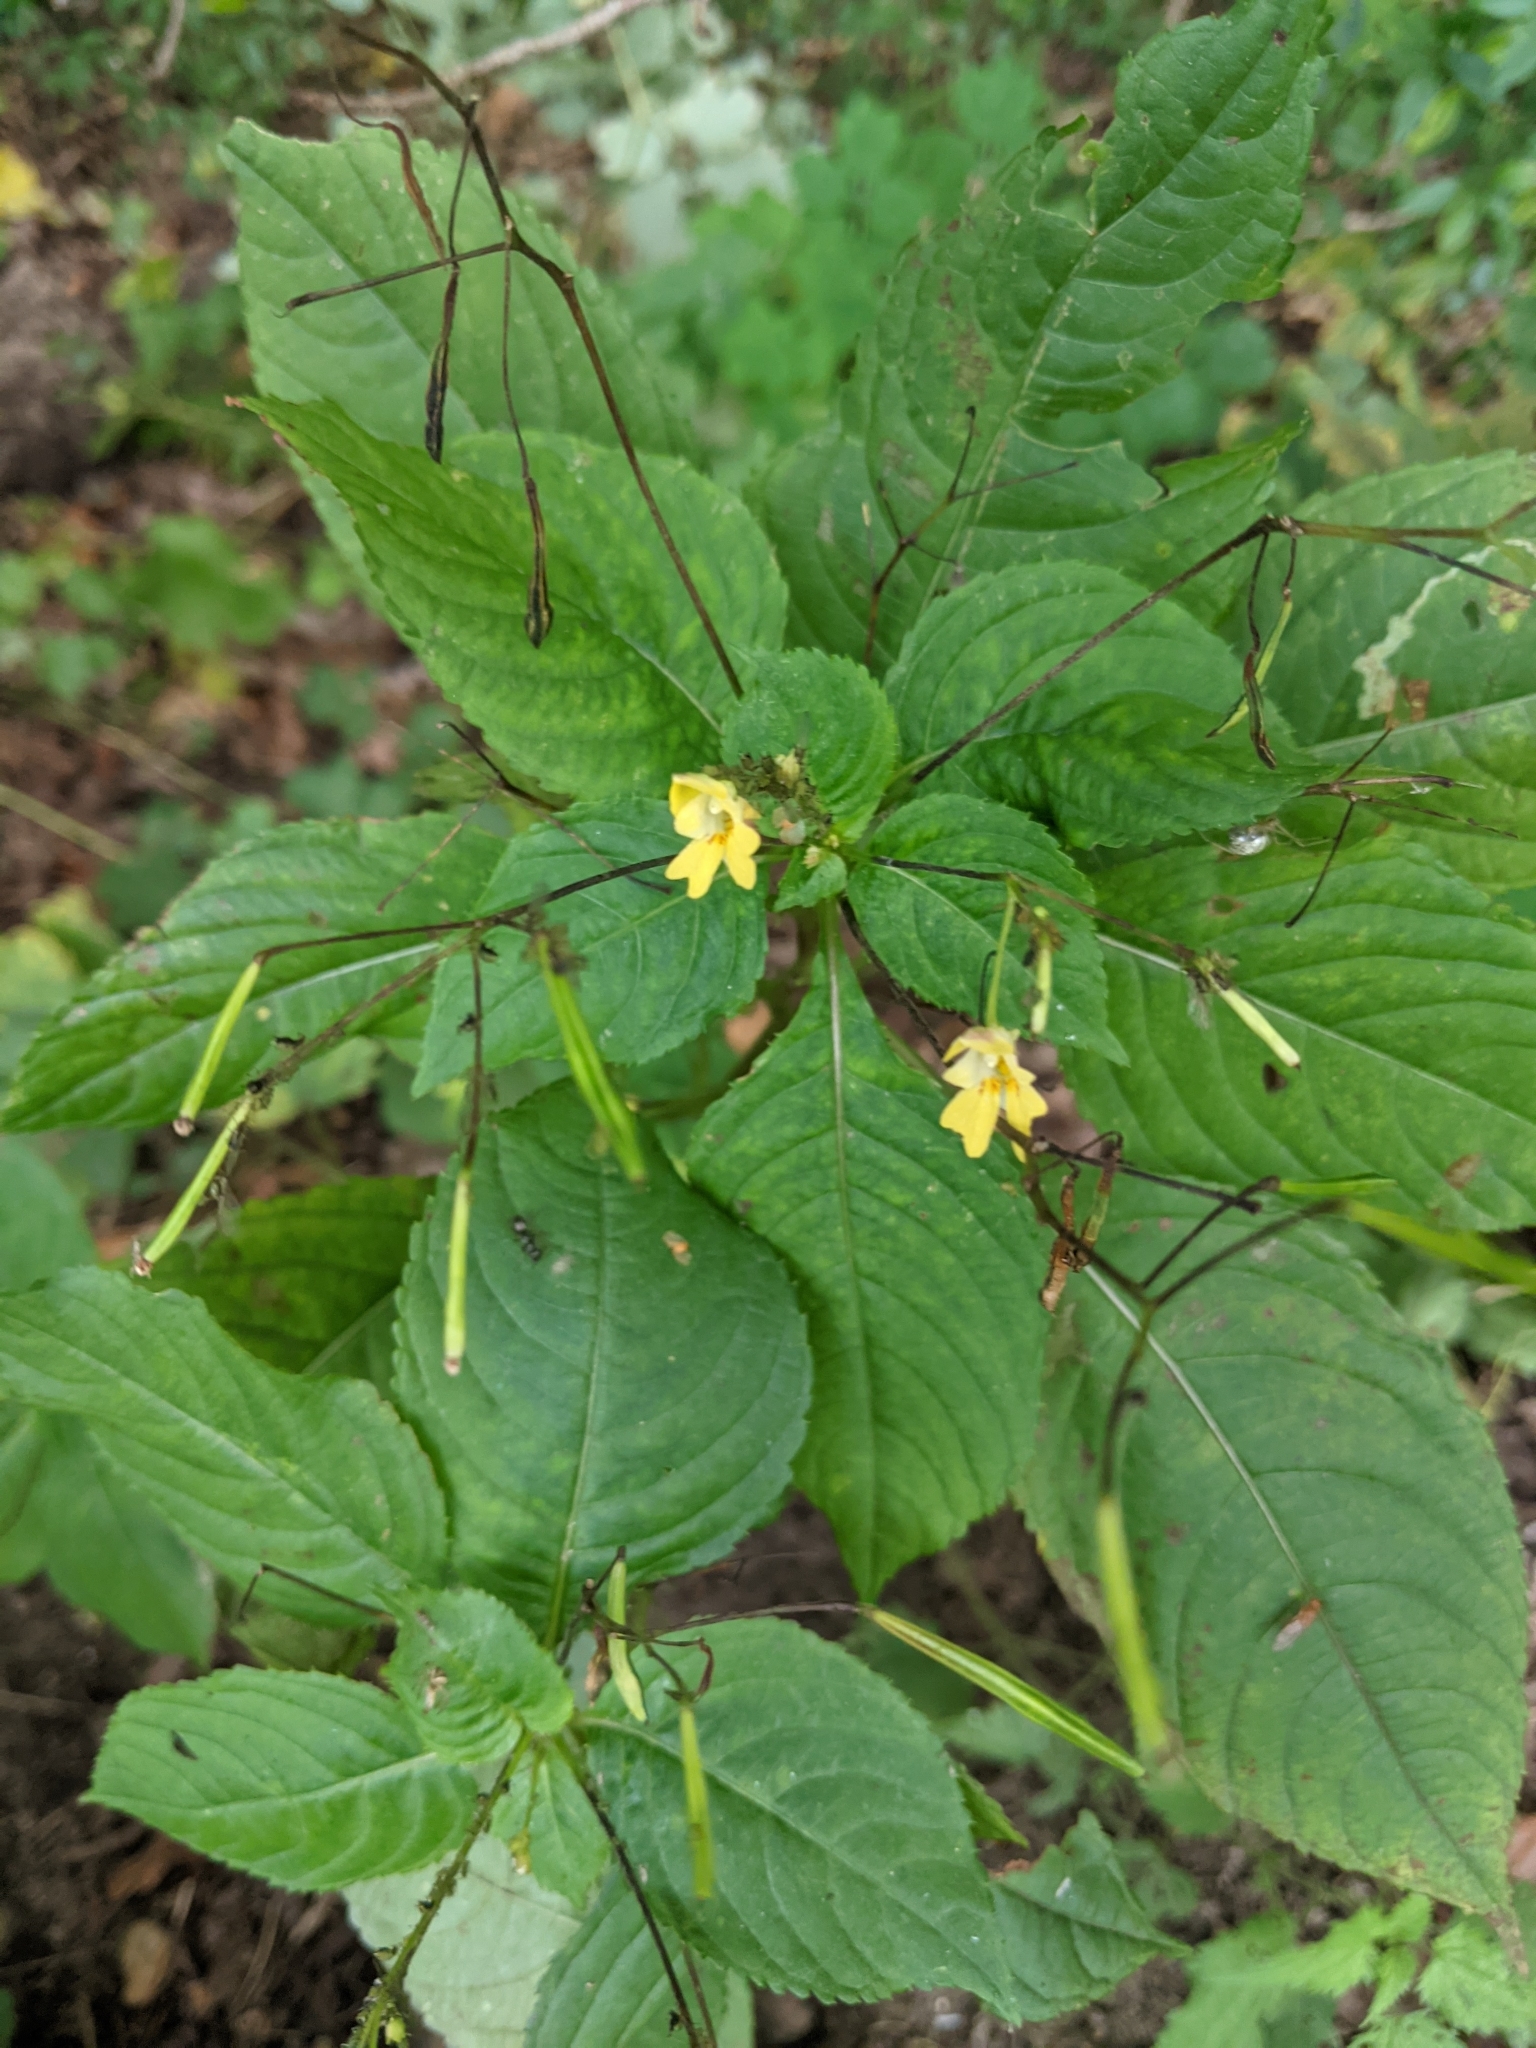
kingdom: Plantae
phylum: Tracheophyta
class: Magnoliopsida
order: Ericales
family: Balsaminaceae
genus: Impatiens
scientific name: Impatiens parviflora
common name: Small balsam
